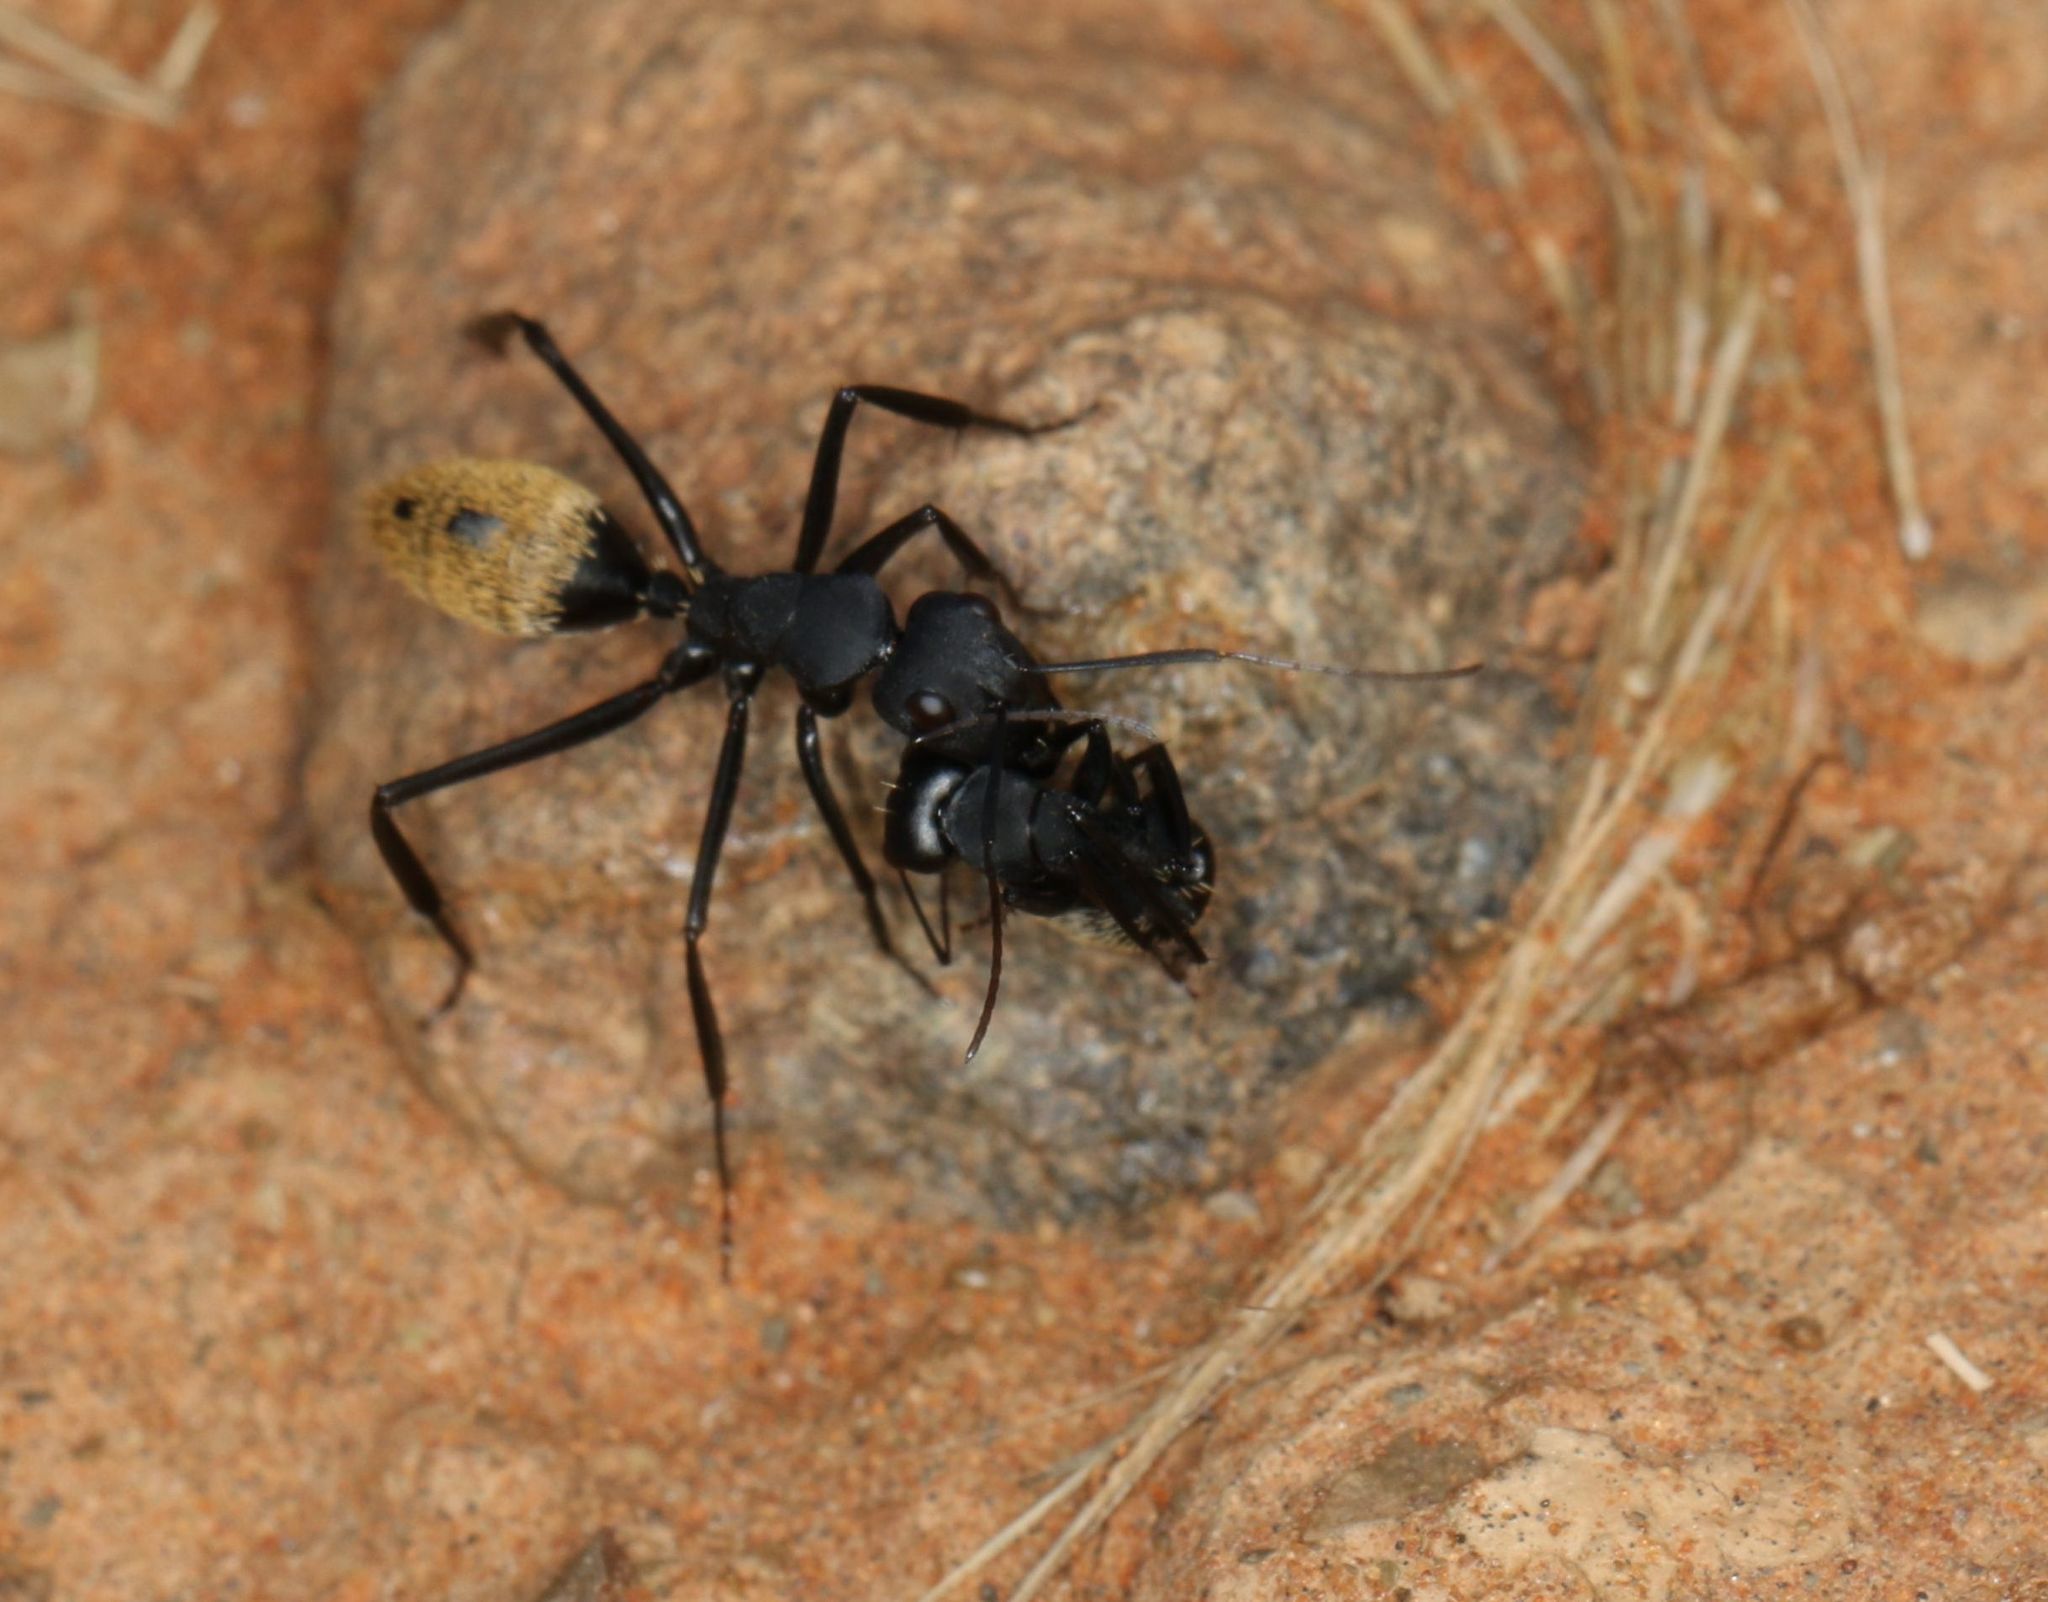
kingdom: Animalia
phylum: Arthropoda
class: Insecta
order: Hymenoptera
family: Formicidae
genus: Camponotus
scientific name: Camponotus fulvopilosus
